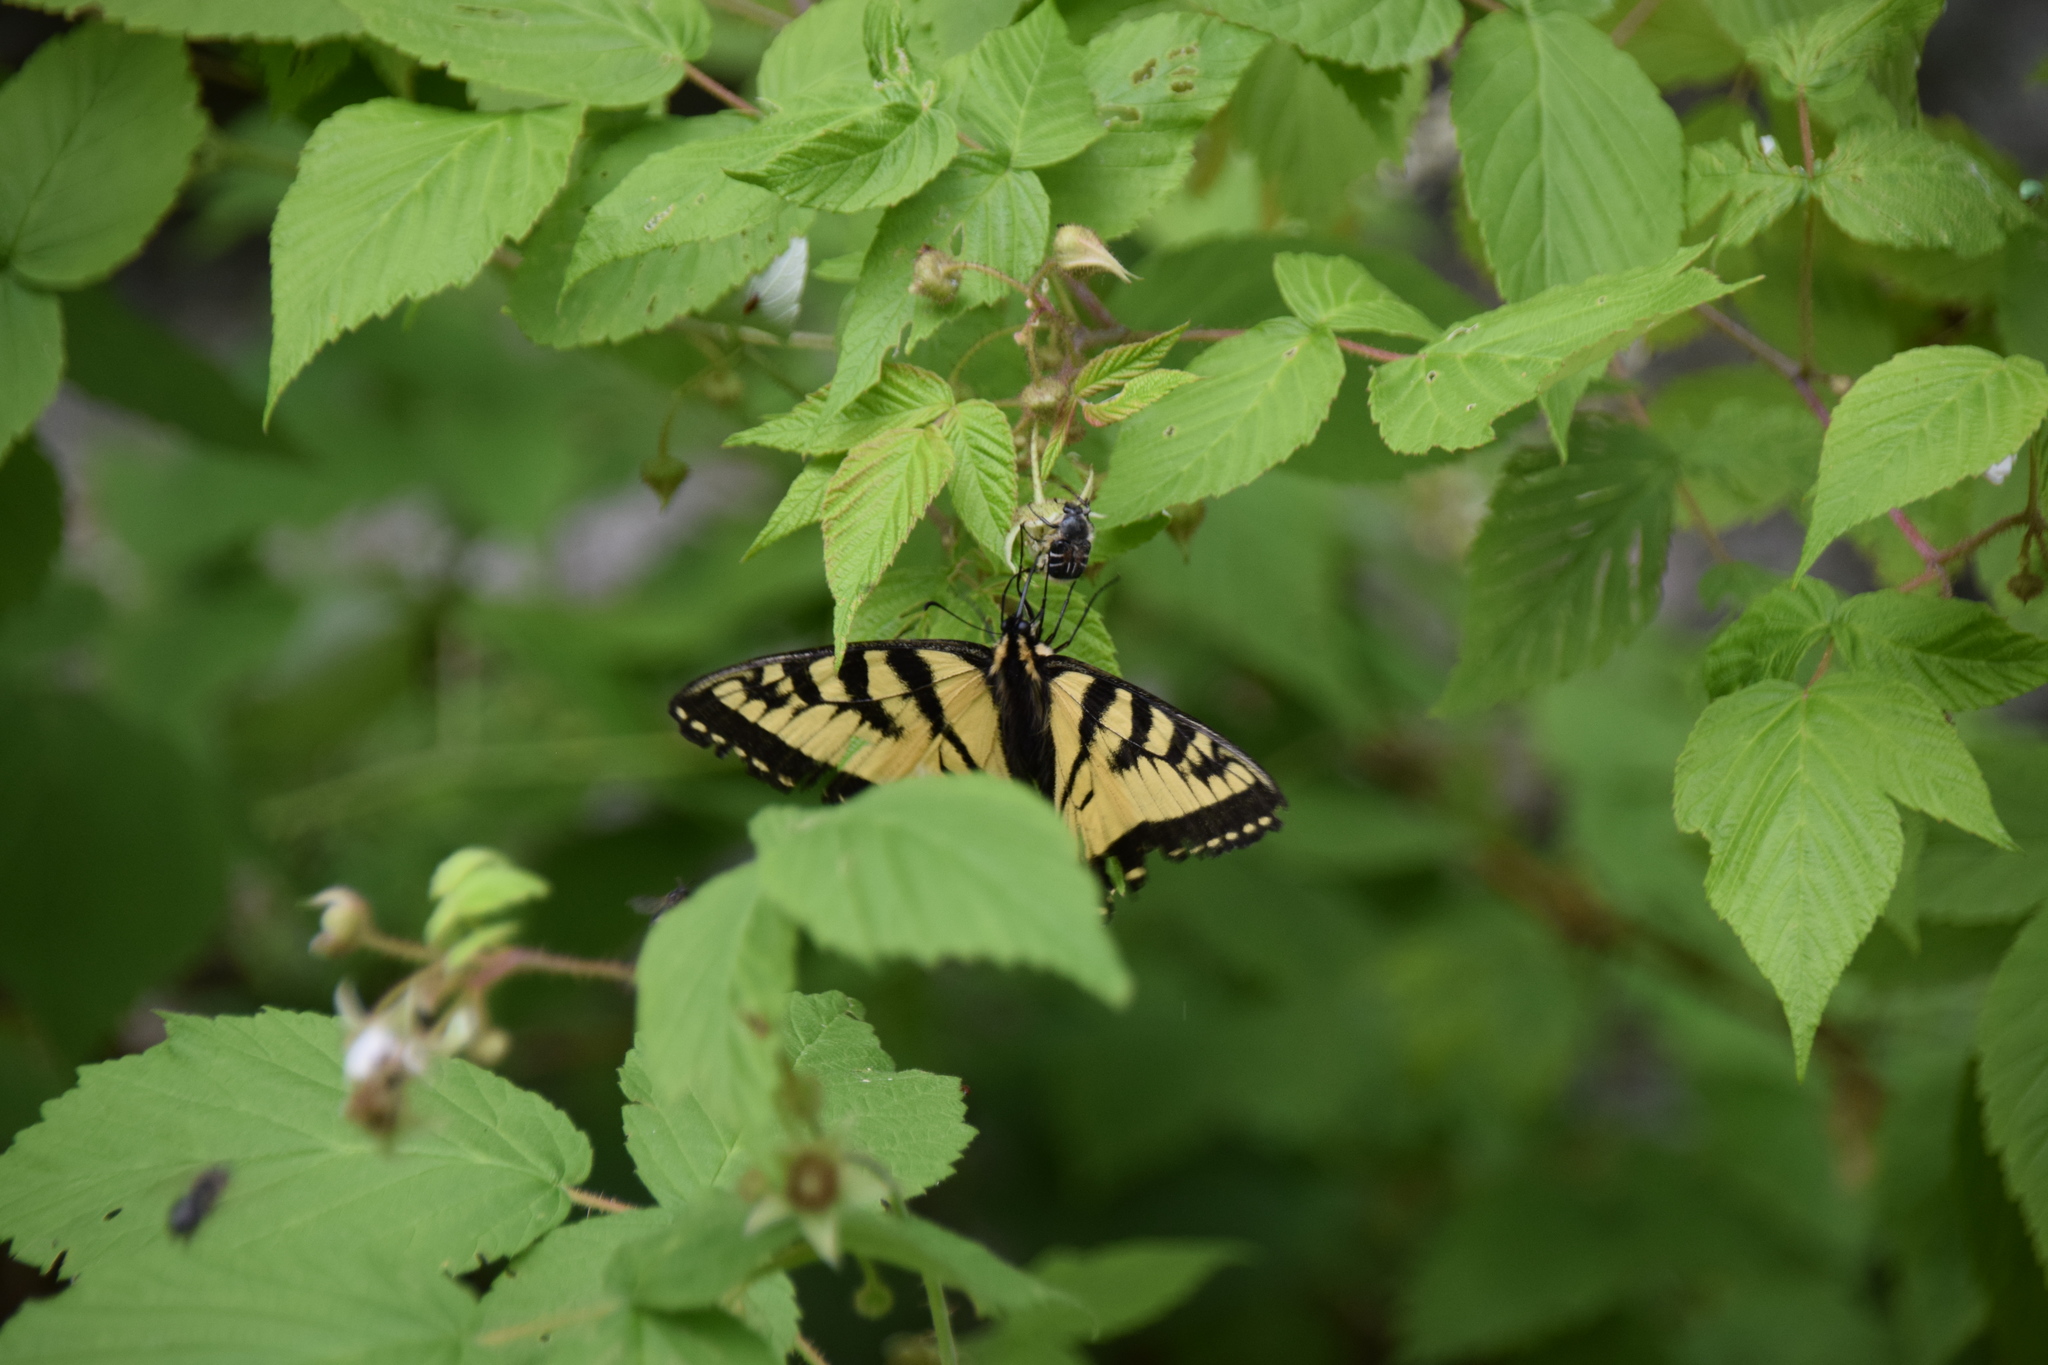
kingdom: Animalia
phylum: Arthropoda
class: Insecta
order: Lepidoptera
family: Papilionidae
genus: Papilio
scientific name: Papilio canadensis
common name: Canadian tiger swallowtail
